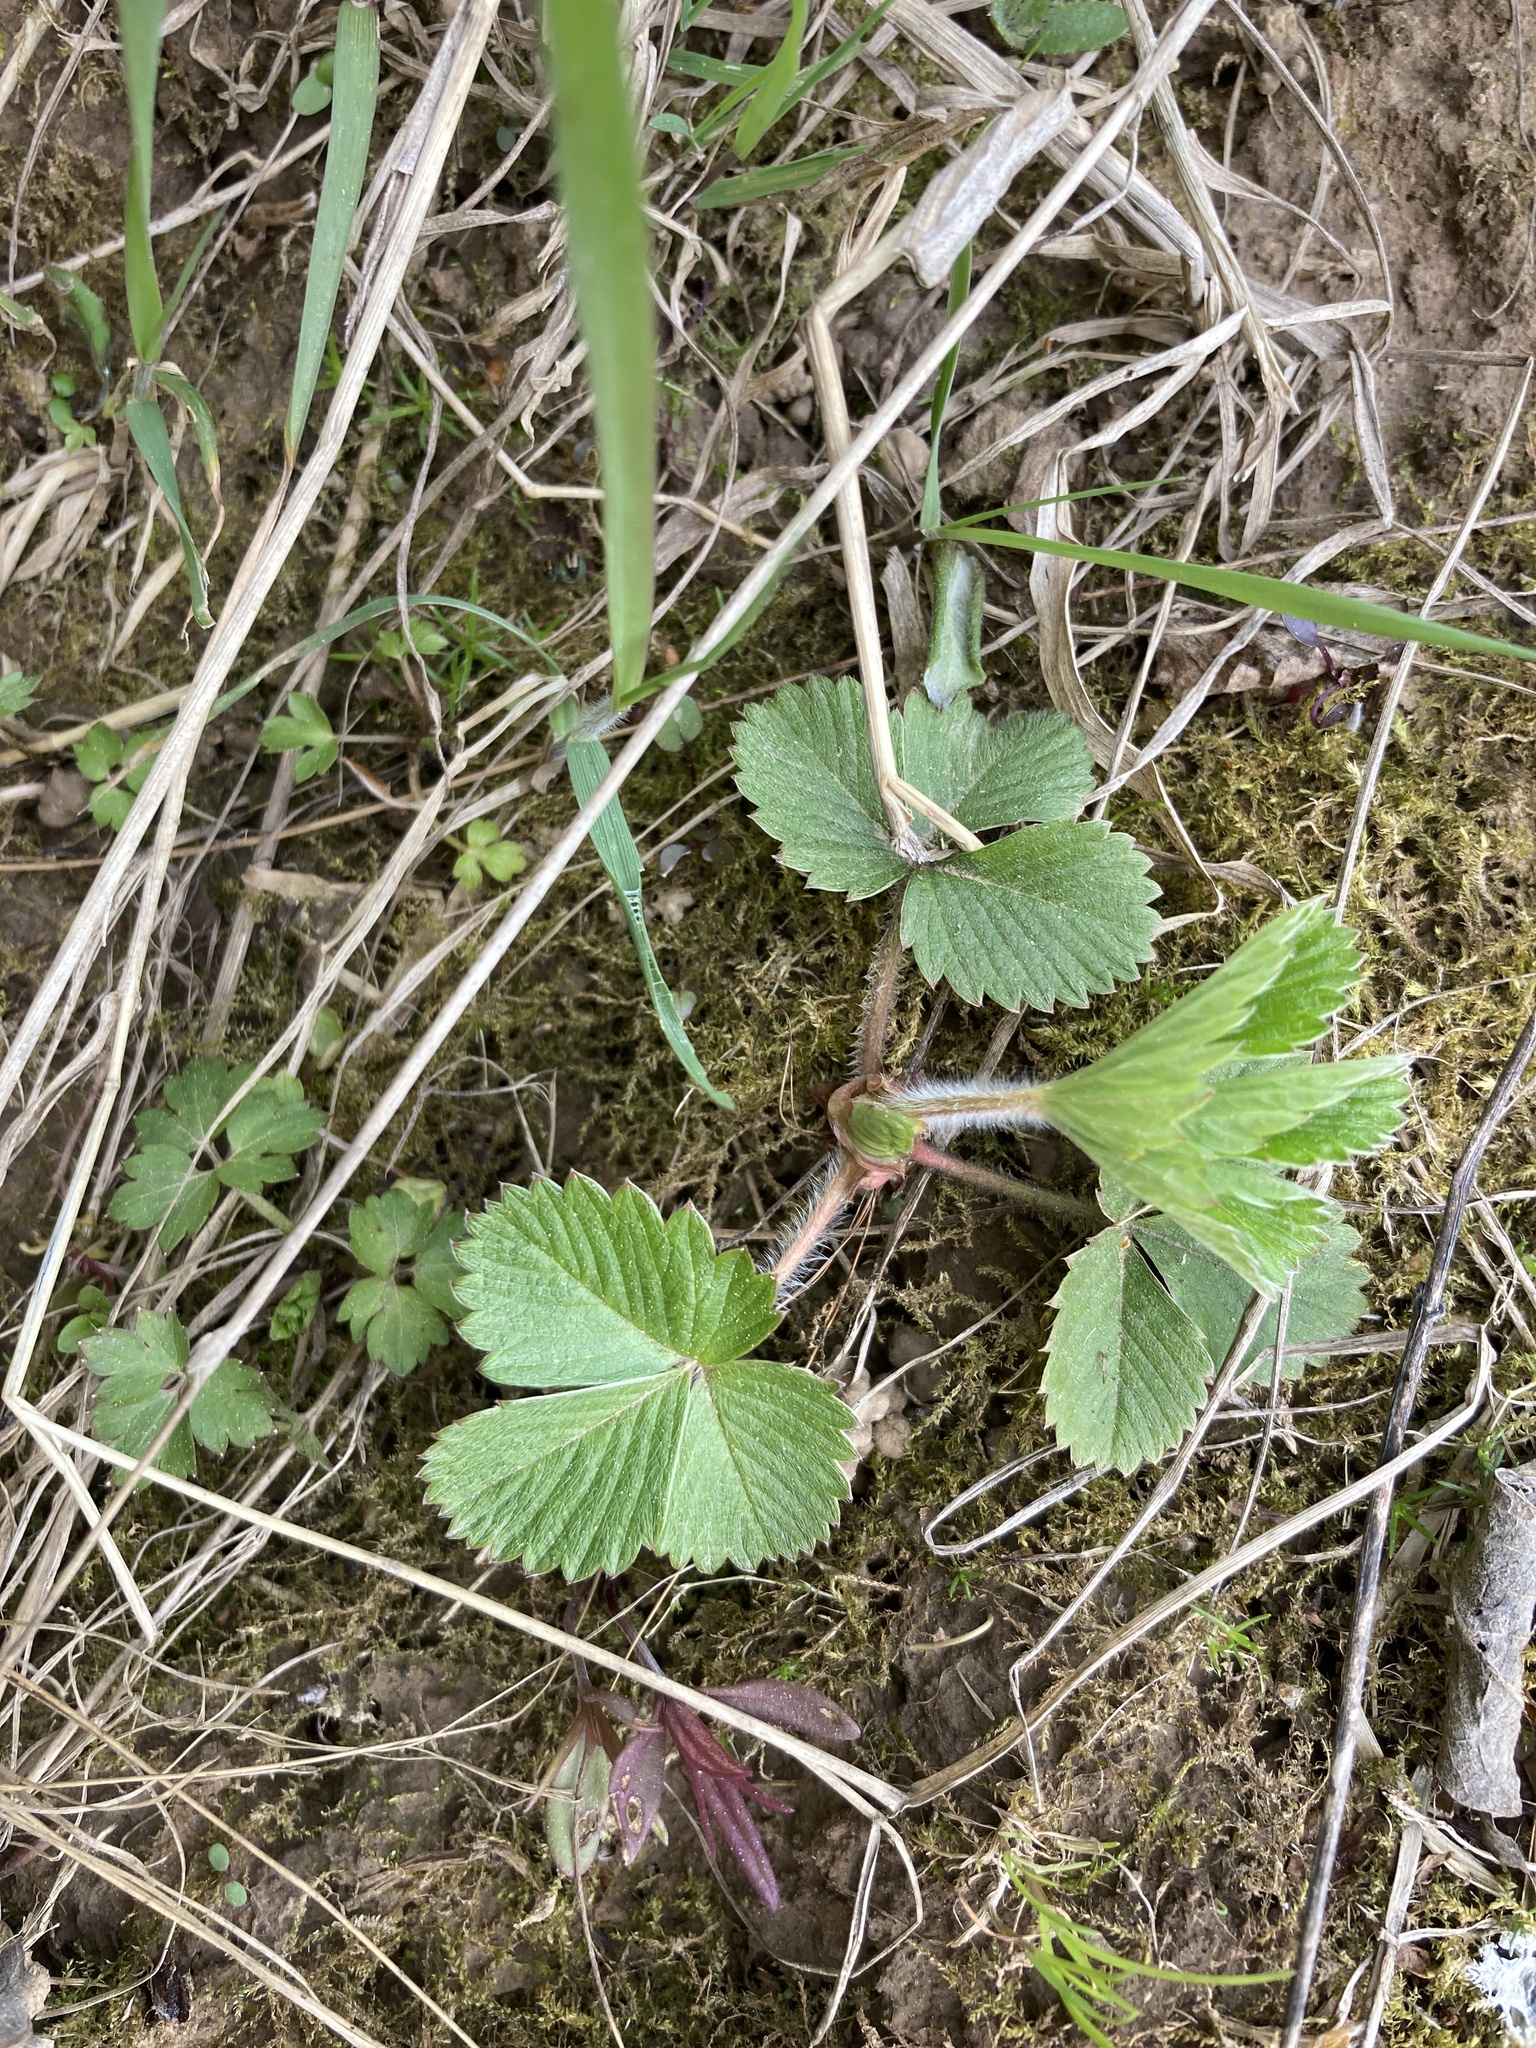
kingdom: Plantae
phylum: Tracheophyta
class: Magnoliopsida
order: Rosales
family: Rosaceae
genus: Fragaria
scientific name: Fragaria vesca
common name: Wild strawberry
